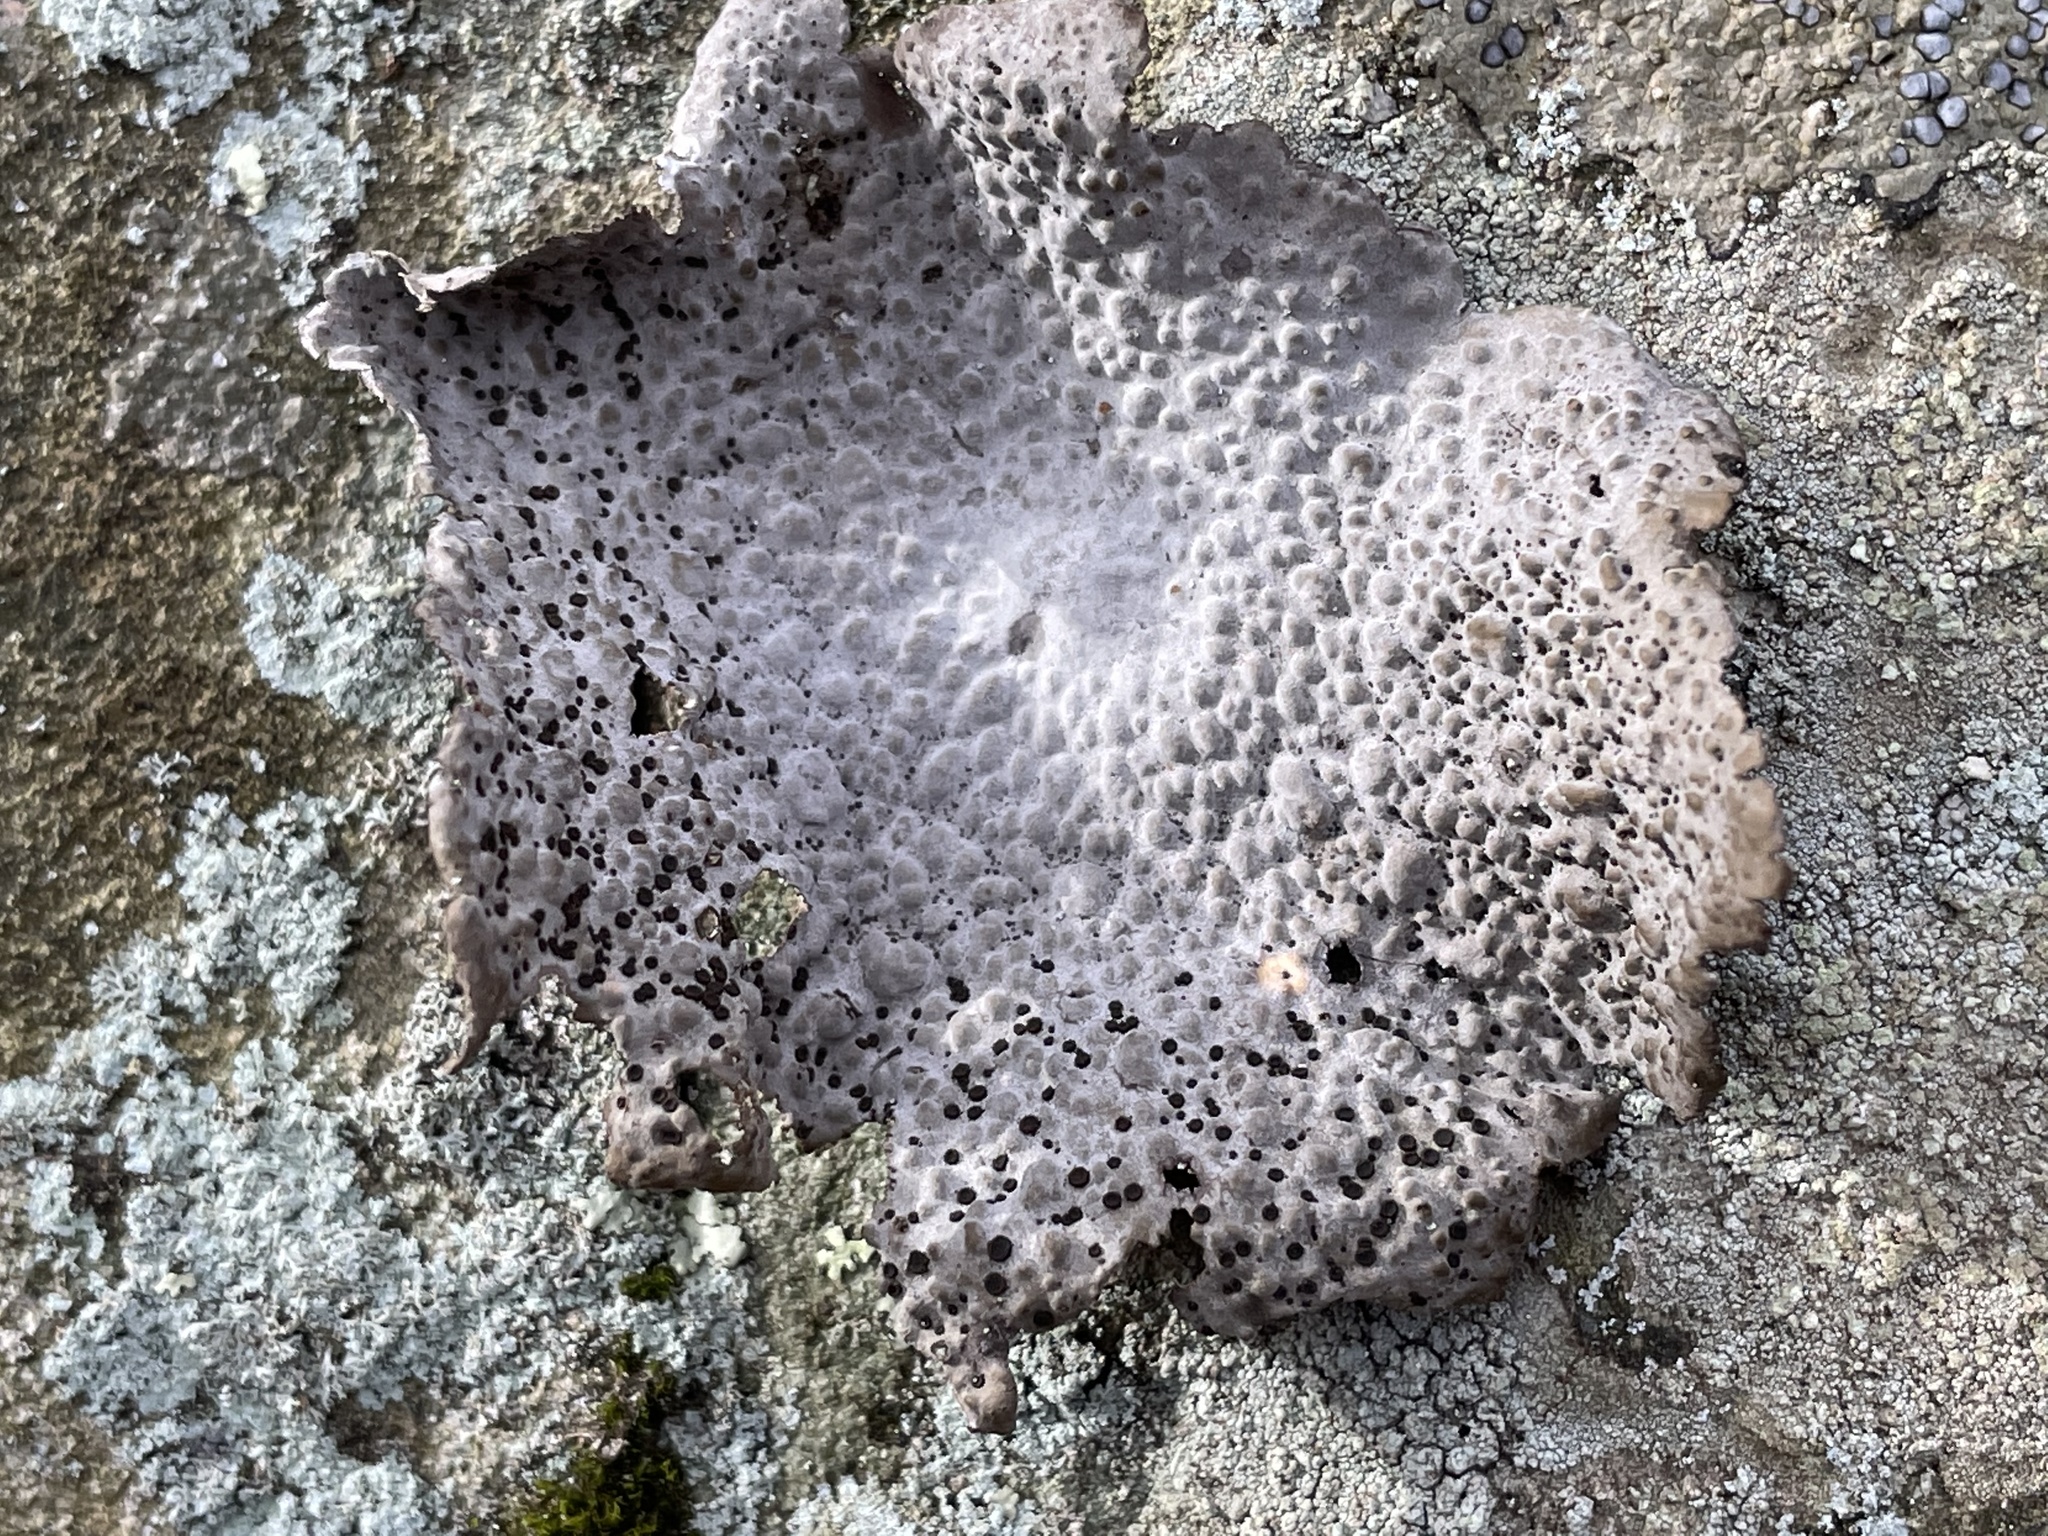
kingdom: Fungi
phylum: Ascomycota
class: Lecanoromycetes
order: Umbilicariales
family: Umbilicariaceae
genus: Lasallia
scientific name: Lasallia papulosa
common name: Common toadskin lichen
